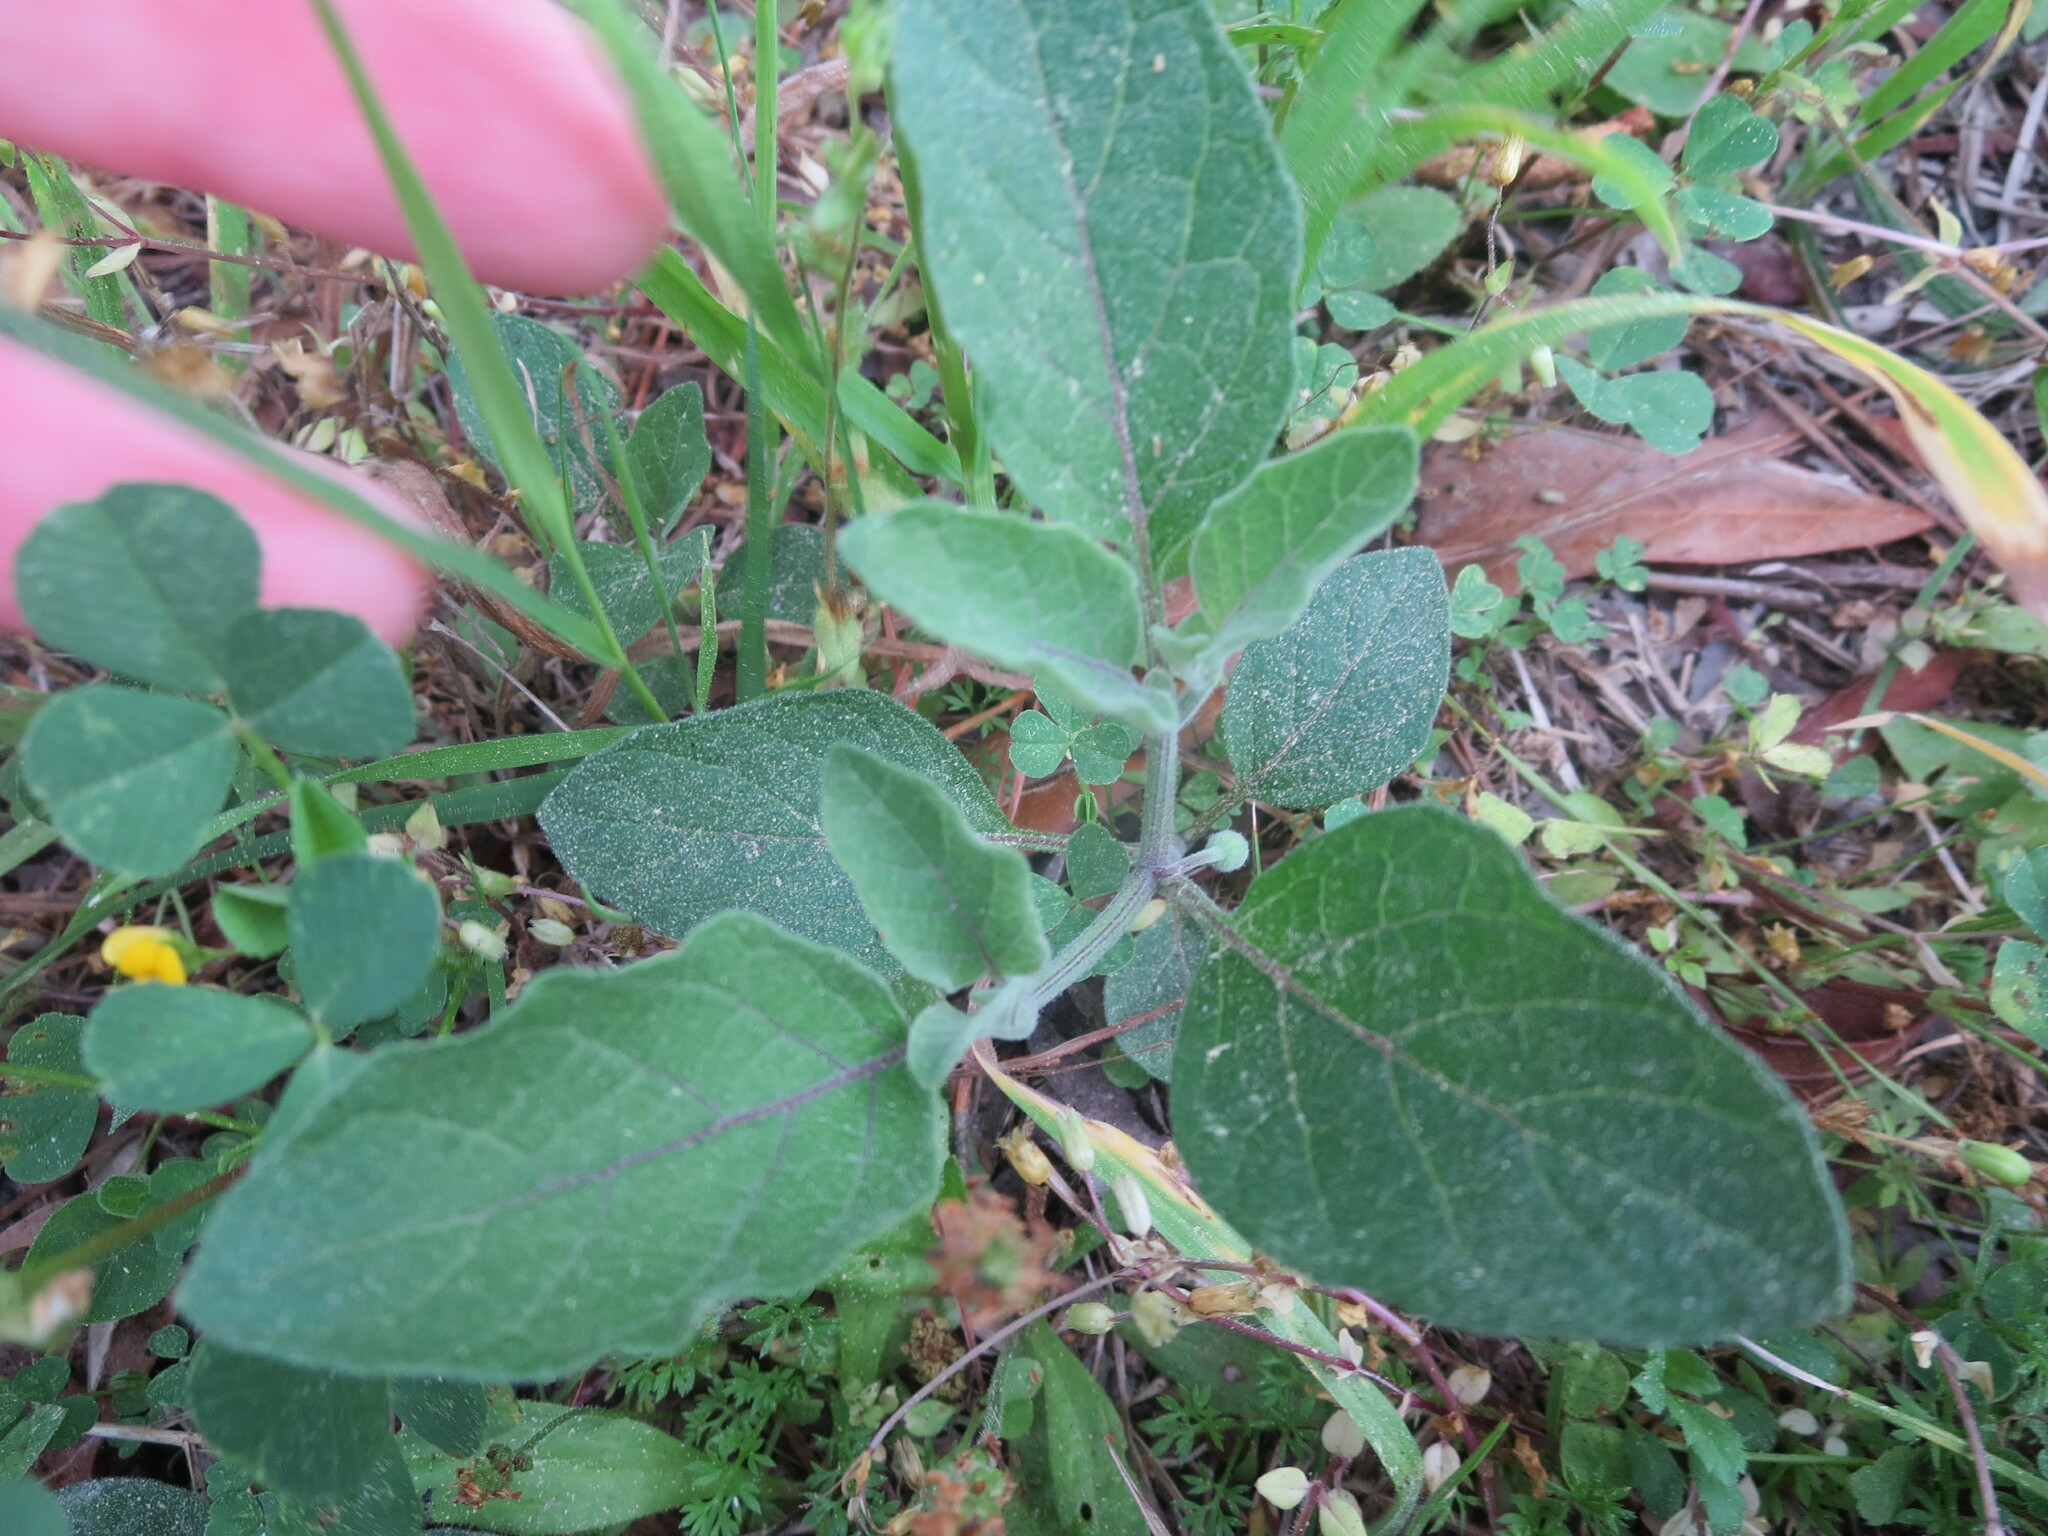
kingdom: Plantae
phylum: Tracheophyta
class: Magnoliopsida
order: Solanales
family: Solanaceae
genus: Physalis
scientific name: Physalis walteri
